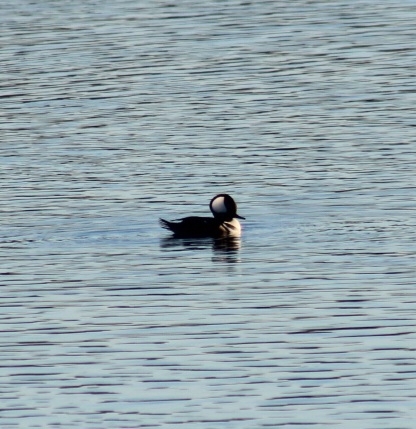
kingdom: Animalia
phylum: Chordata
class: Aves
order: Anseriformes
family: Anatidae
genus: Lophodytes
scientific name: Lophodytes cucullatus
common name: Hooded merganser
